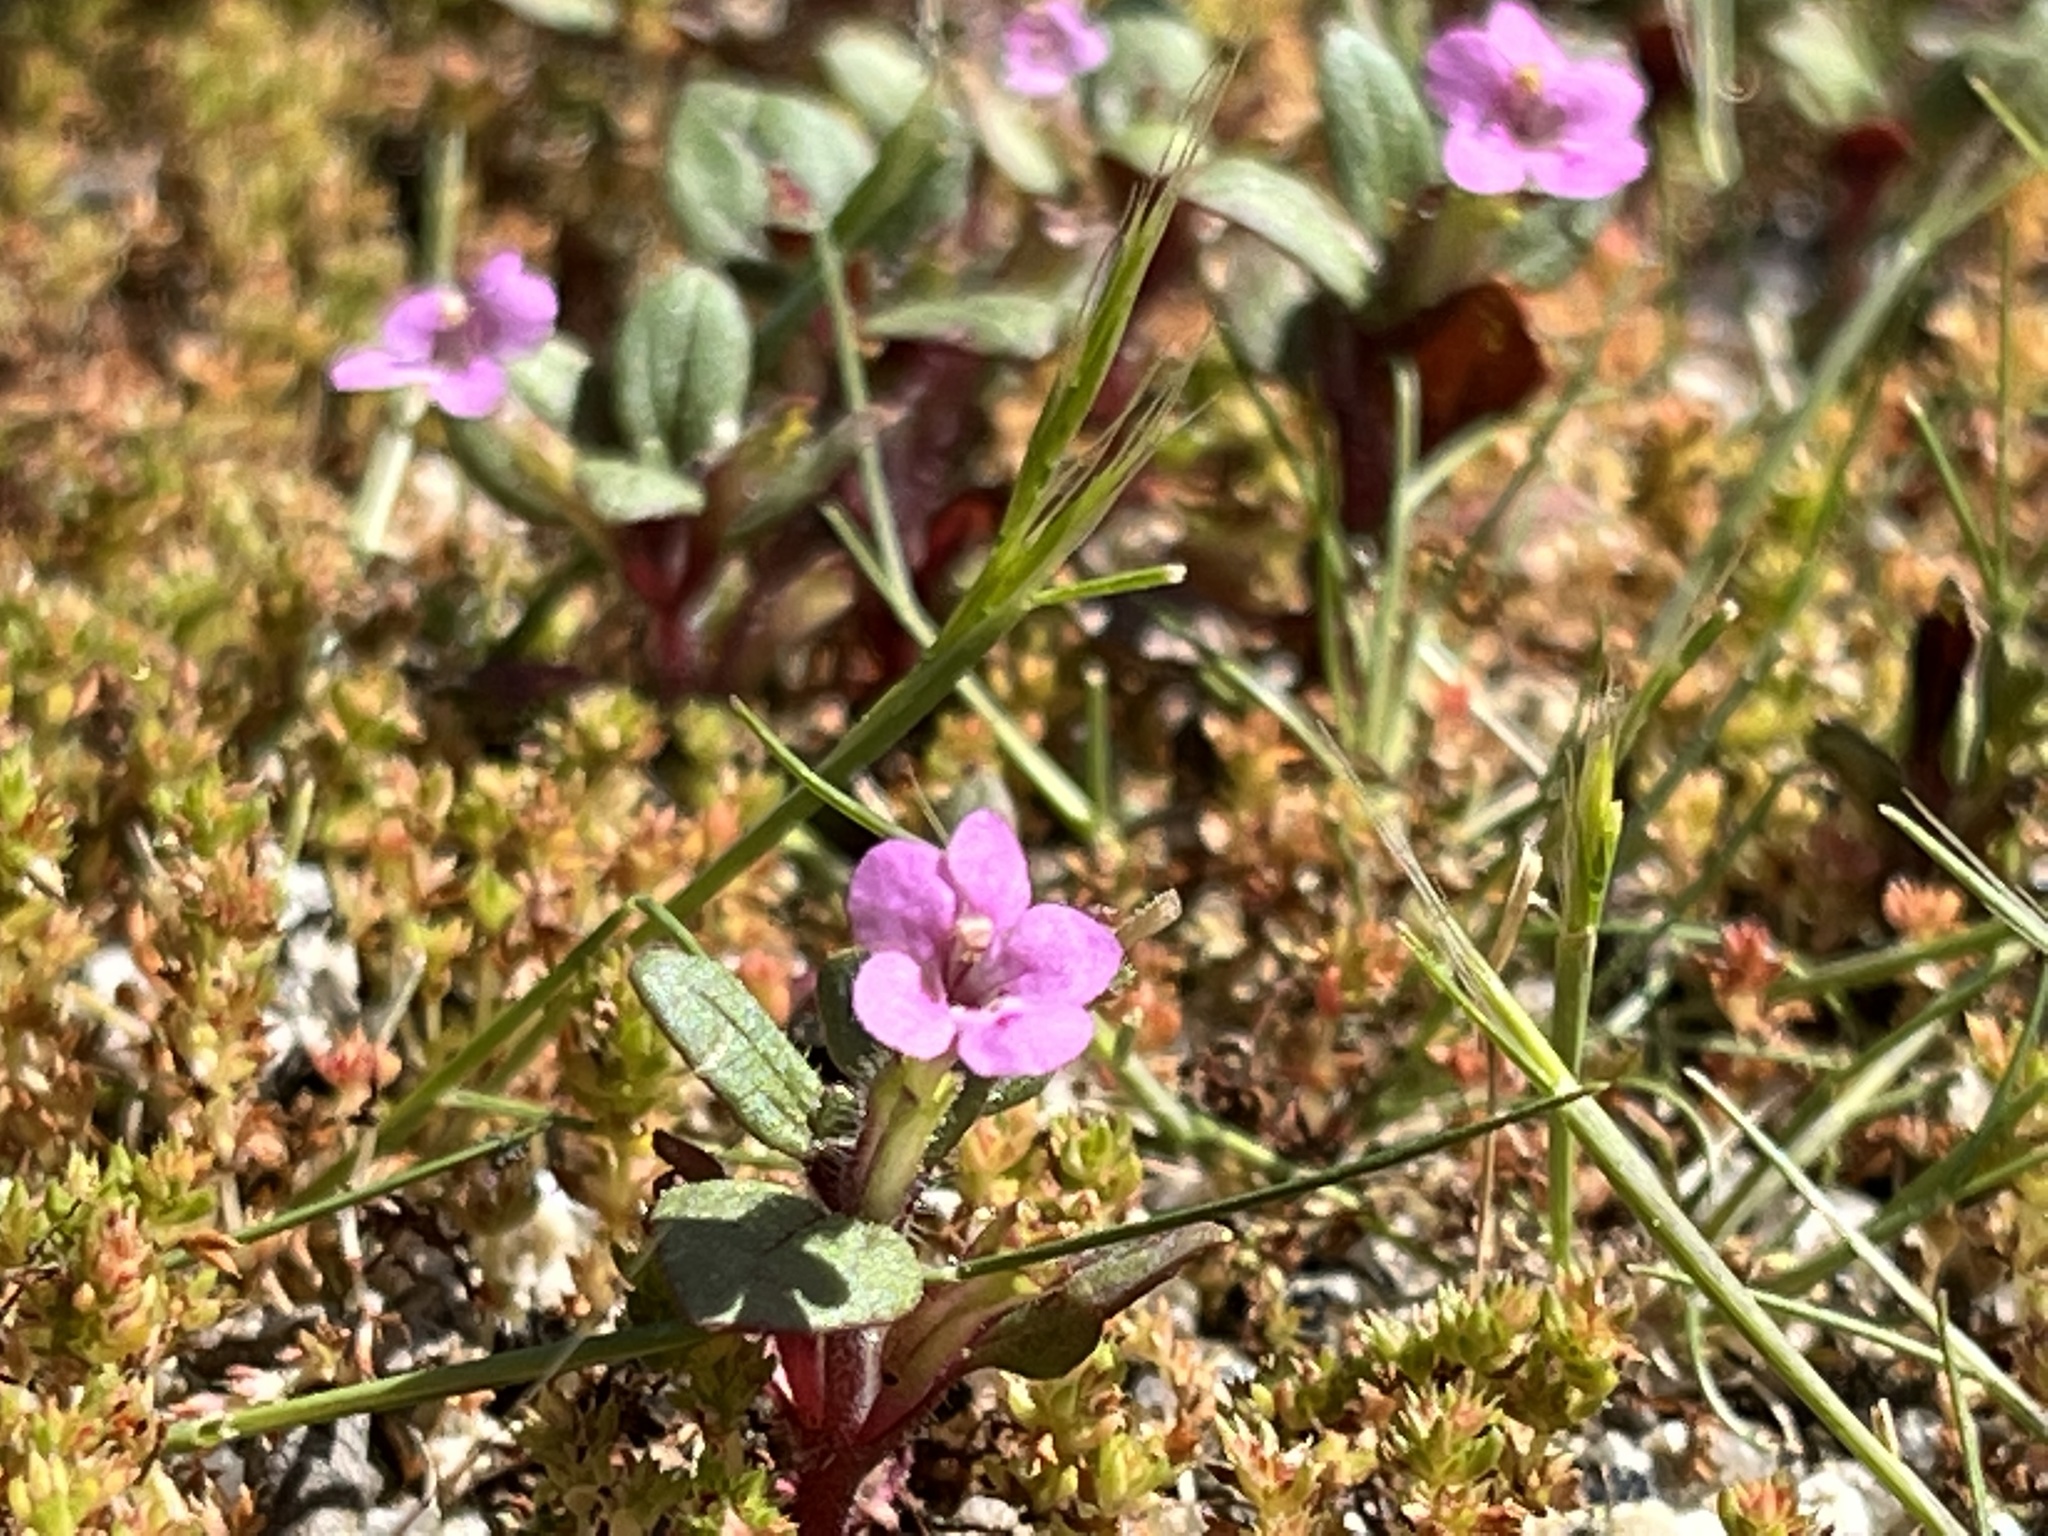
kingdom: Plantae
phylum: Tracheophyta
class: Magnoliopsida
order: Lamiales
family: Phrymaceae
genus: Diplacus
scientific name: Diplacus congdonii
